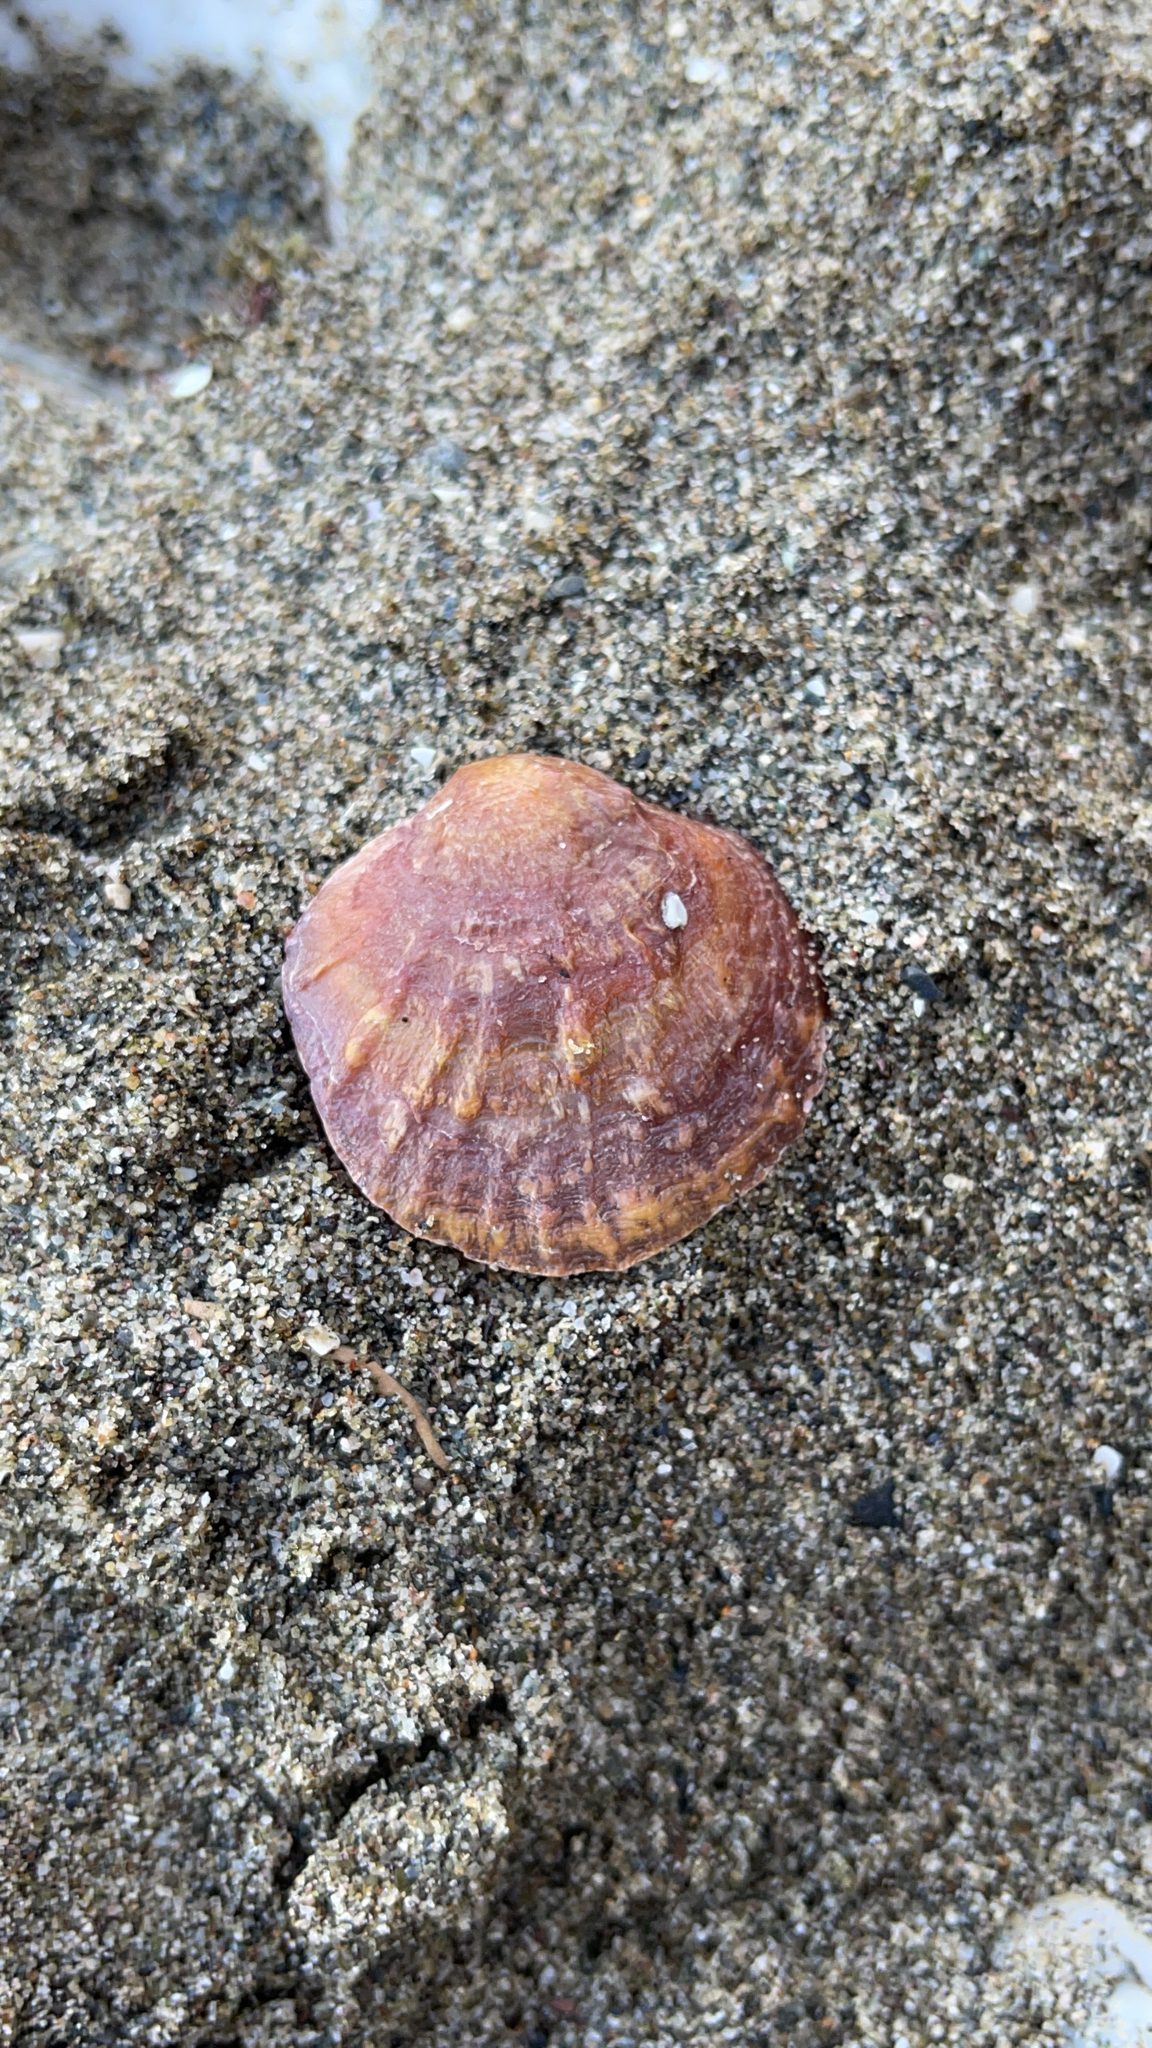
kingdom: Animalia
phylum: Mollusca
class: Bivalvia
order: Pectinida
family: Anomiidae
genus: Anomia
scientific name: Anomia ephippium
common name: Saddle oyster
